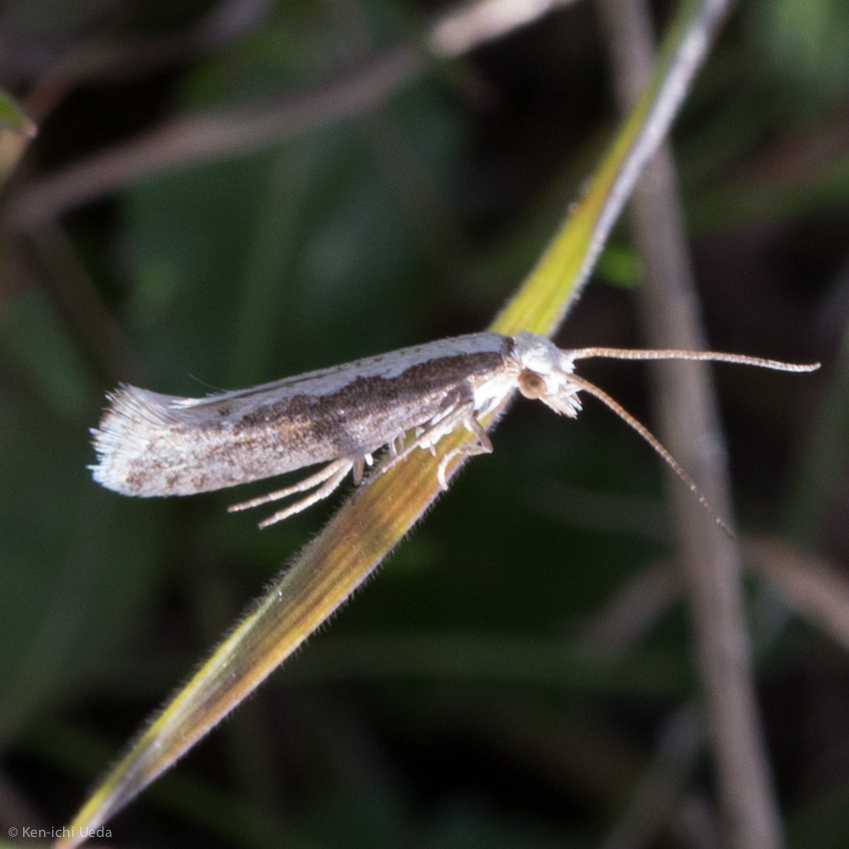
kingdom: Animalia
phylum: Arthropoda
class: Insecta
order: Lepidoptera
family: Plutellidae
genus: Plutella
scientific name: Plutella xylostella
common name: Diamond-back moth
